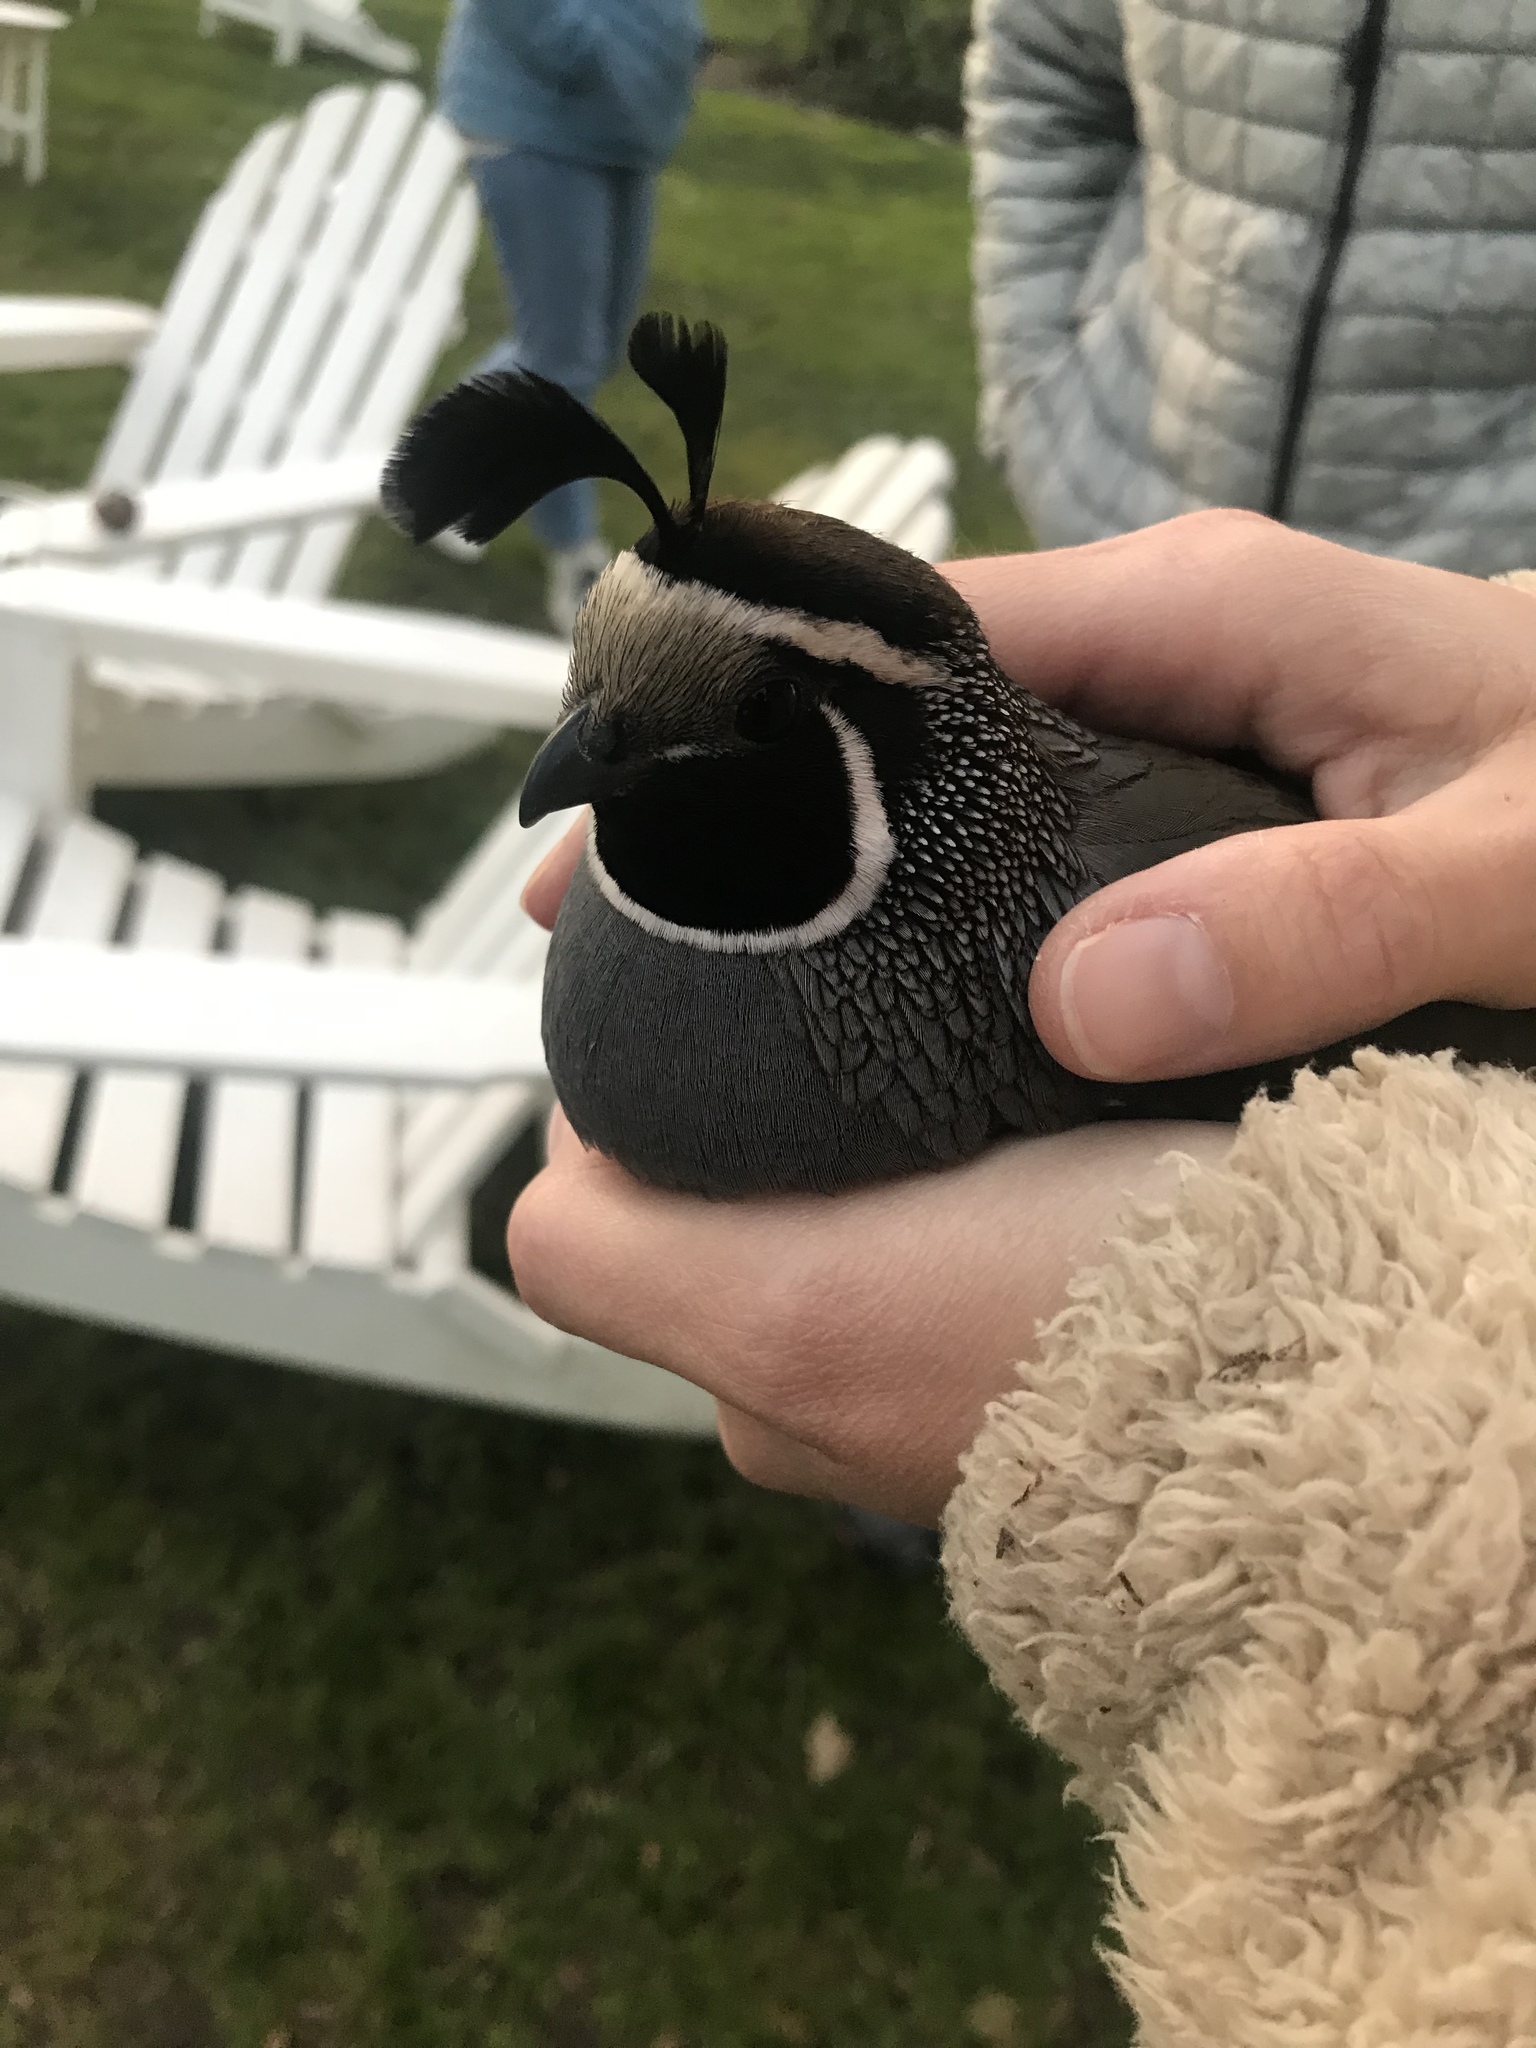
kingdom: Animalia
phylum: Chordata
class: Aves
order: Galliformes
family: Odontophoridae
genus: Callipepla
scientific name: Callipepla californica
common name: California quail
